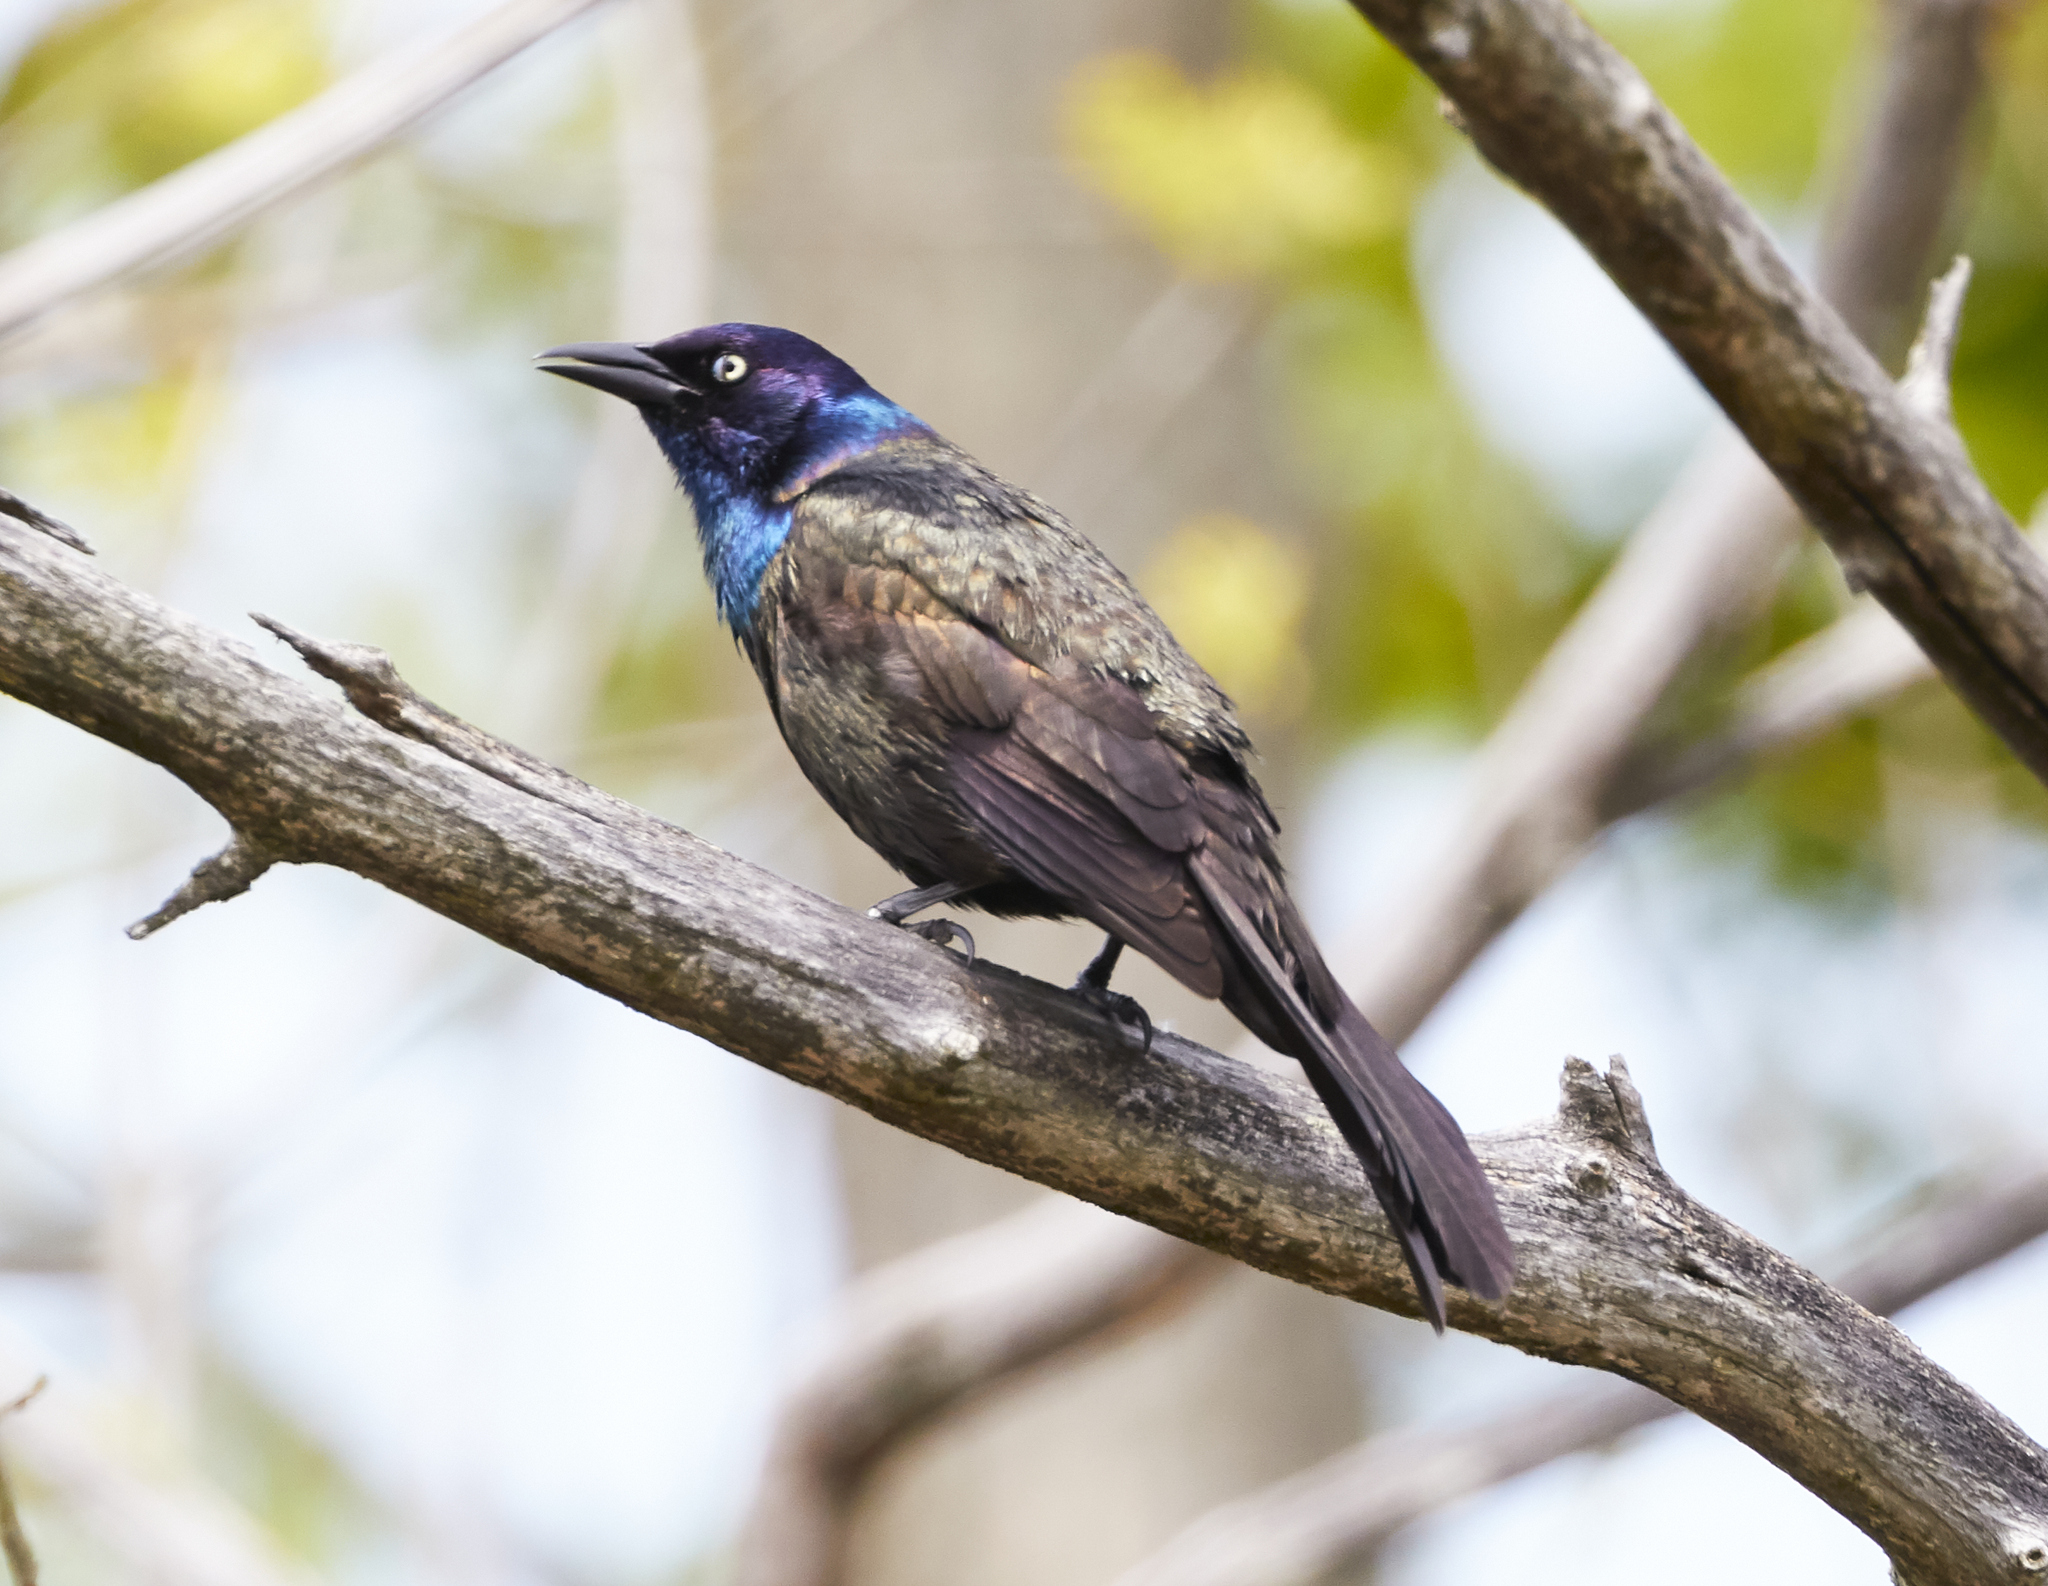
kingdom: Animalia
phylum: Chordata
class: Aves
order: Passeriformes
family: Icteridae
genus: Quiscalus
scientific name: Quiscalus quiscula
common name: Common grackle
